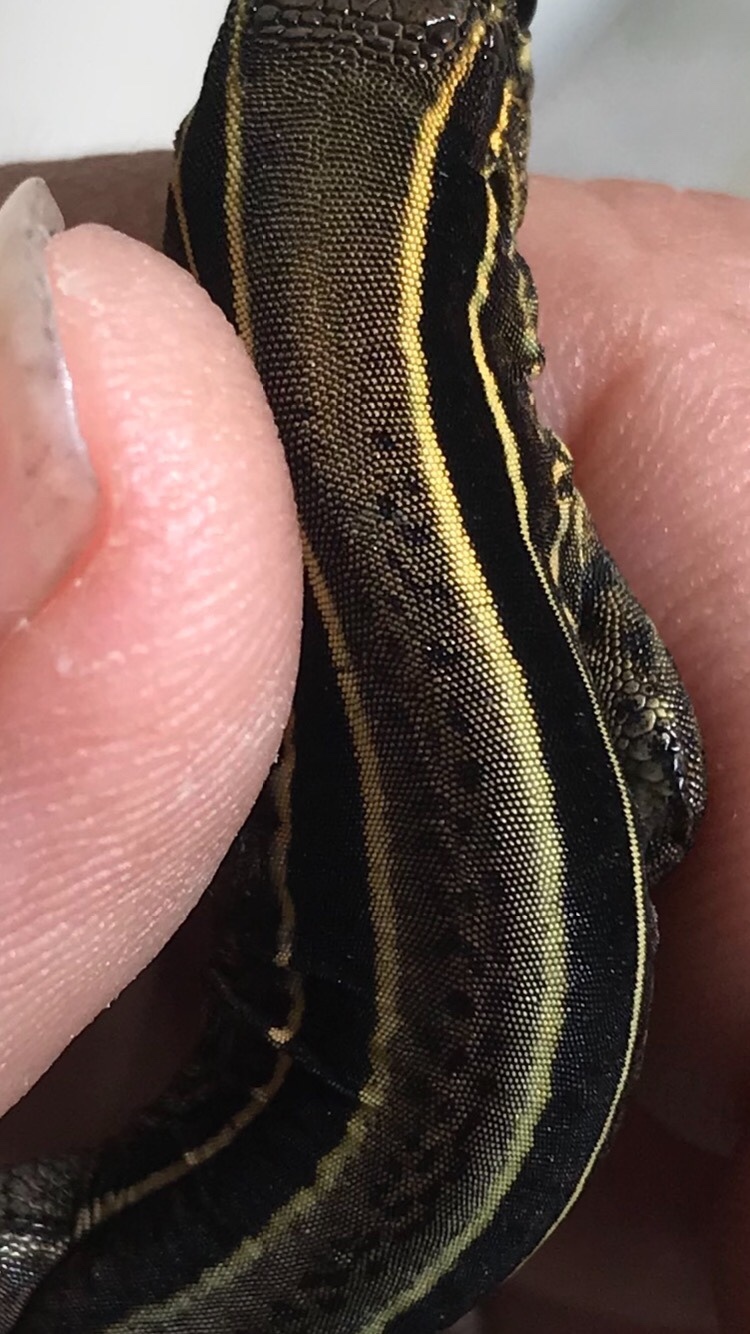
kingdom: Animalia
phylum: Chordata
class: Squamata
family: Teiidae
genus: Holcosus
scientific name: Holcosus quadrilineatus
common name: Four-lined ameiva
